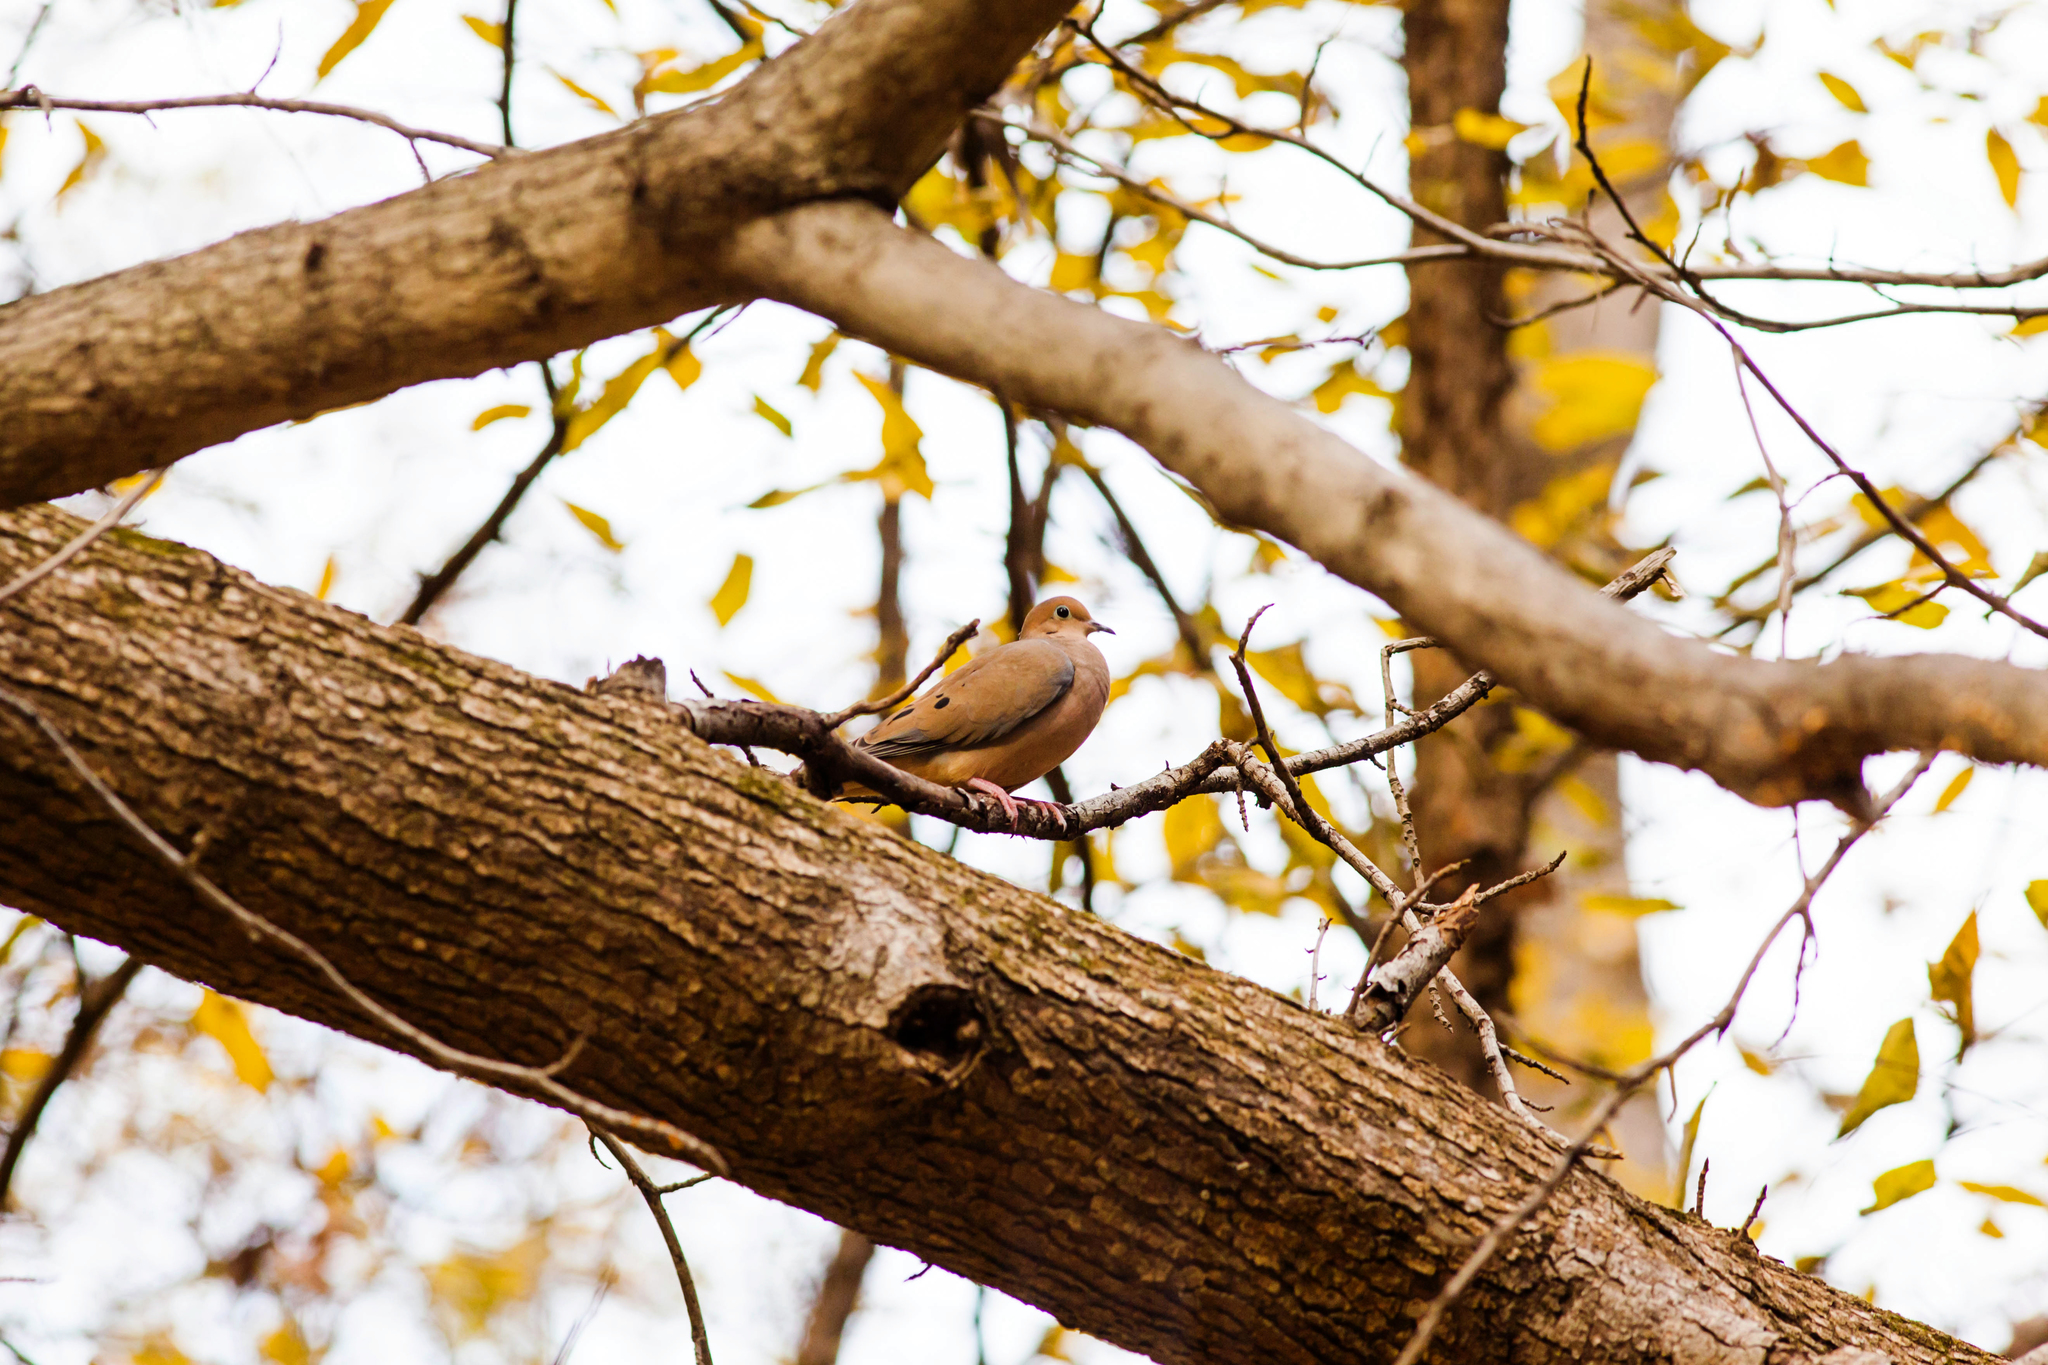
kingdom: Animalia
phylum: Chordata
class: Aves
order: Columbiformes
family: Columbidae
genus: Zenaida
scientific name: Zenaida macroura
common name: Mourning dove
